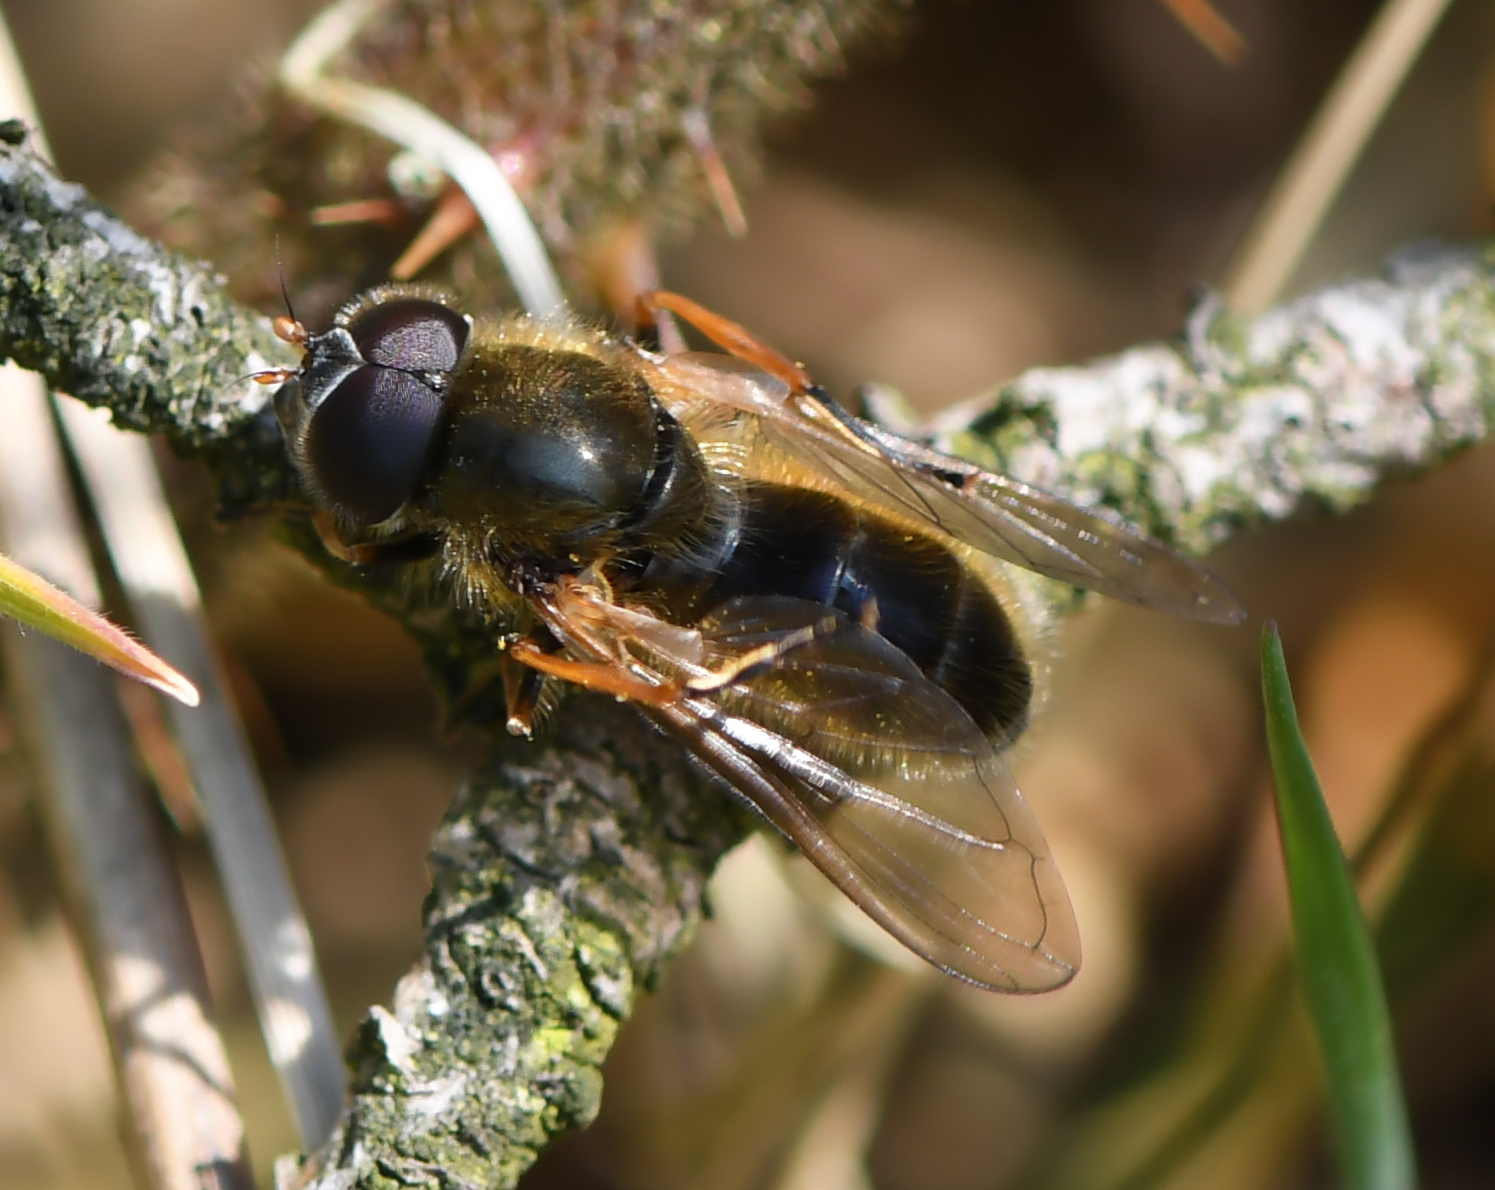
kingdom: Animalia
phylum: Arthropoda
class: Insecta
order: Diptera
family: Syrphidae
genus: Cheilosia
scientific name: Cheilosia albipila
